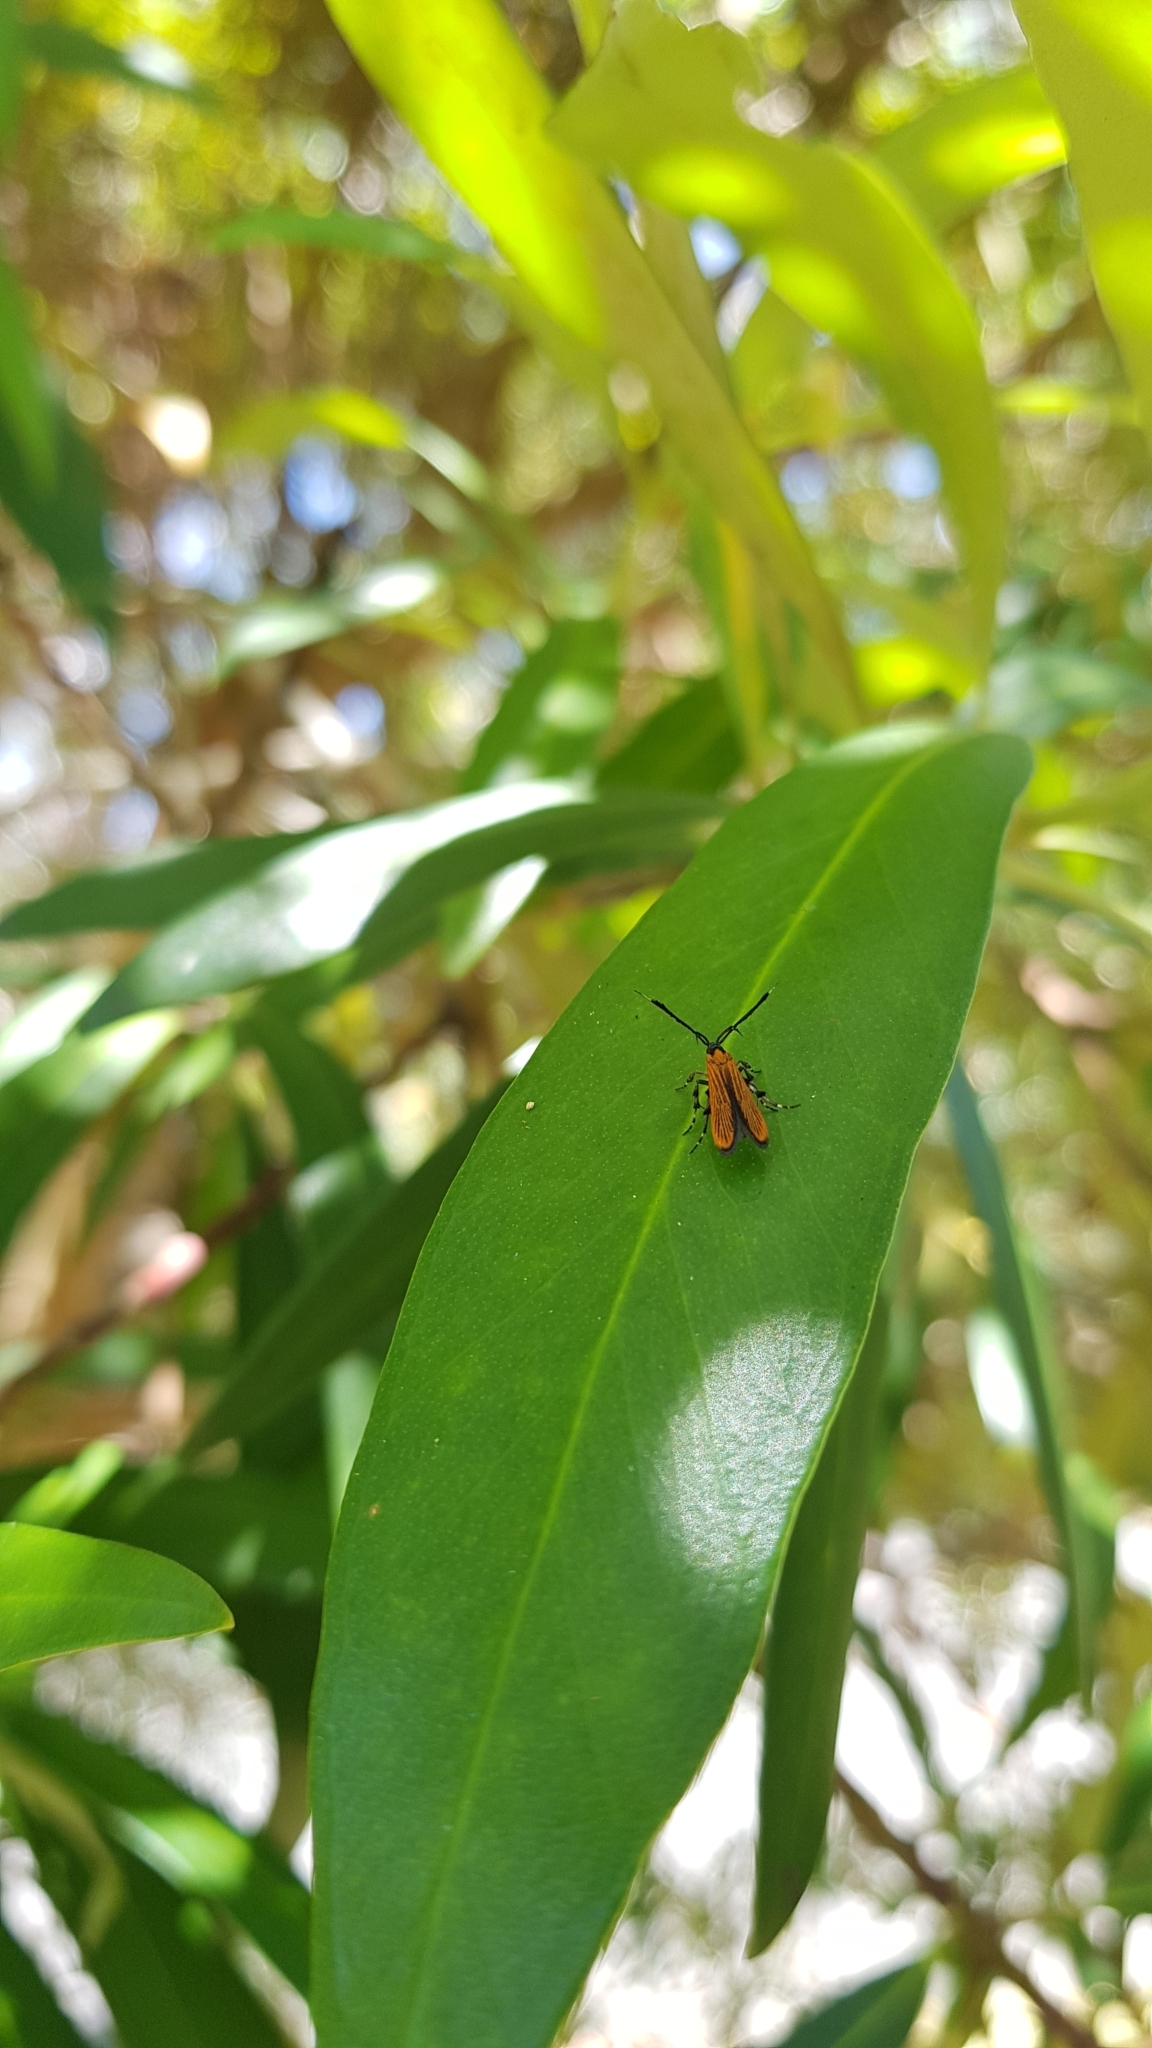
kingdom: Animalia
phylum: Arthropoda
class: Insecta
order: Lepidoptera
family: Stathmopodidae
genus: Snellenia
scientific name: Snellenia lineata
